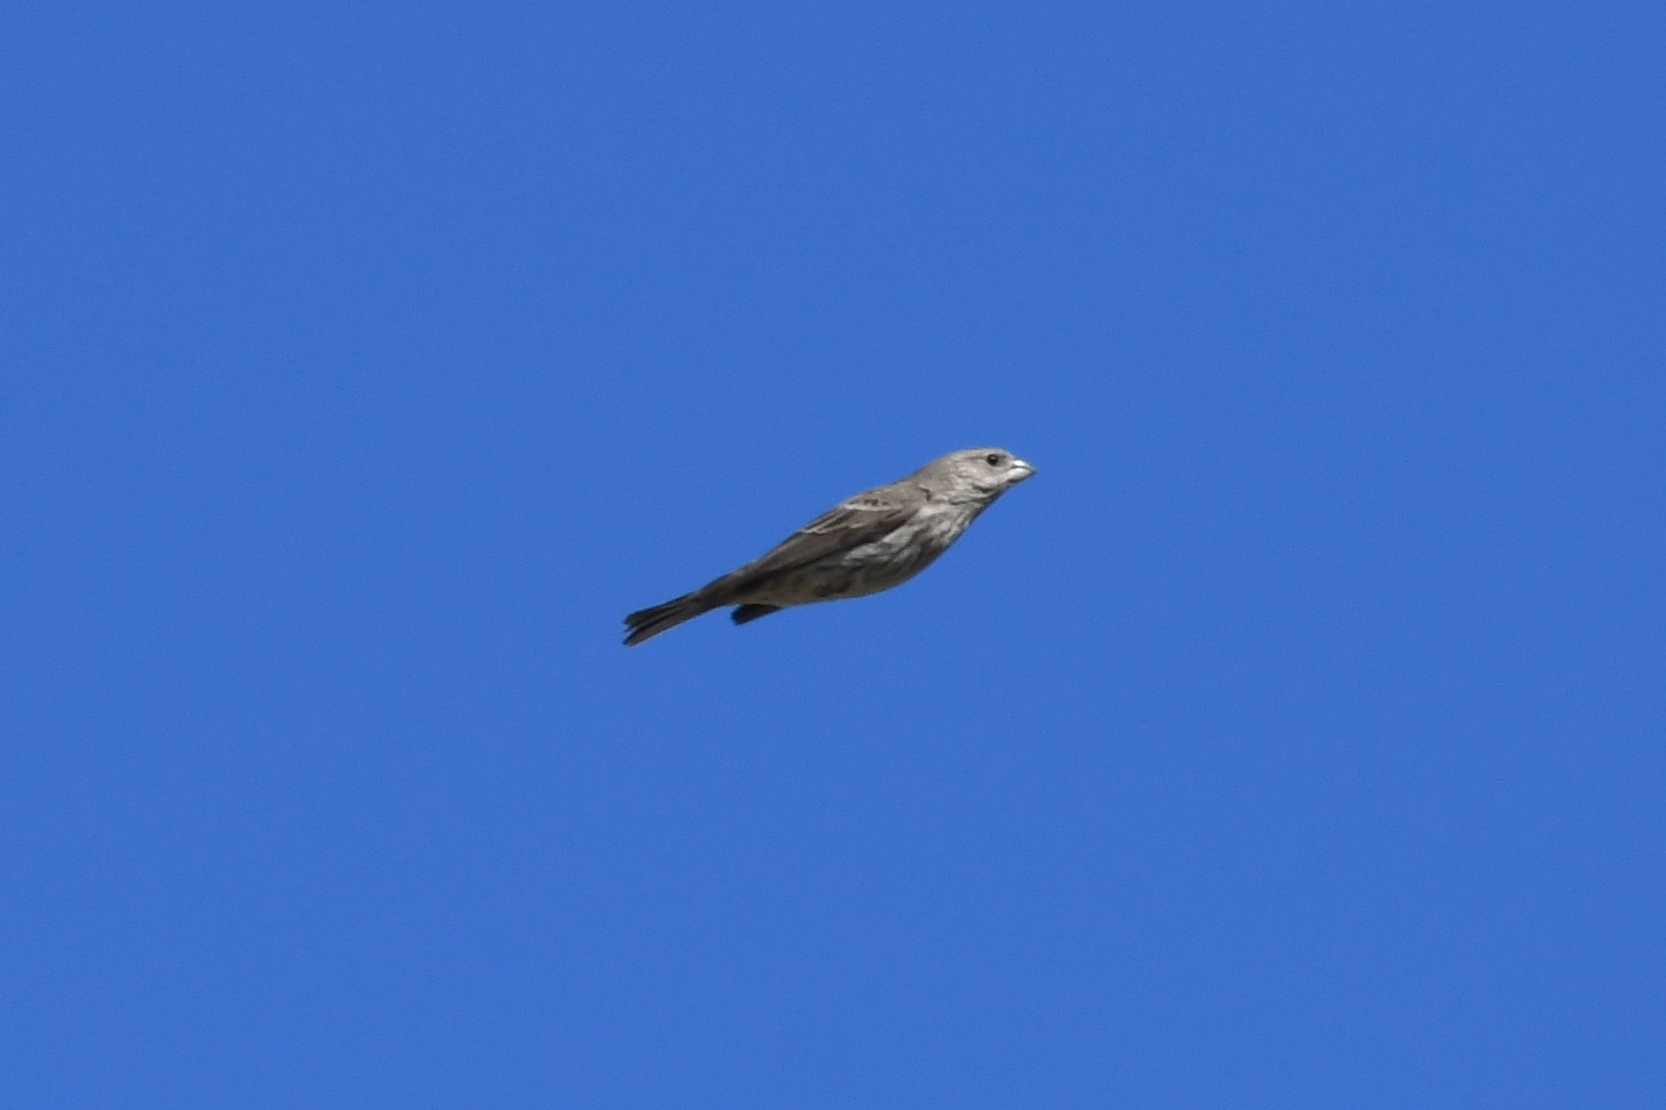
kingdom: Animalia
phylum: Chordata
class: Aves
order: Passeriformes
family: Fringillidae
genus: Haemorhous
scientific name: Haemorhous mexicanus
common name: House finch
